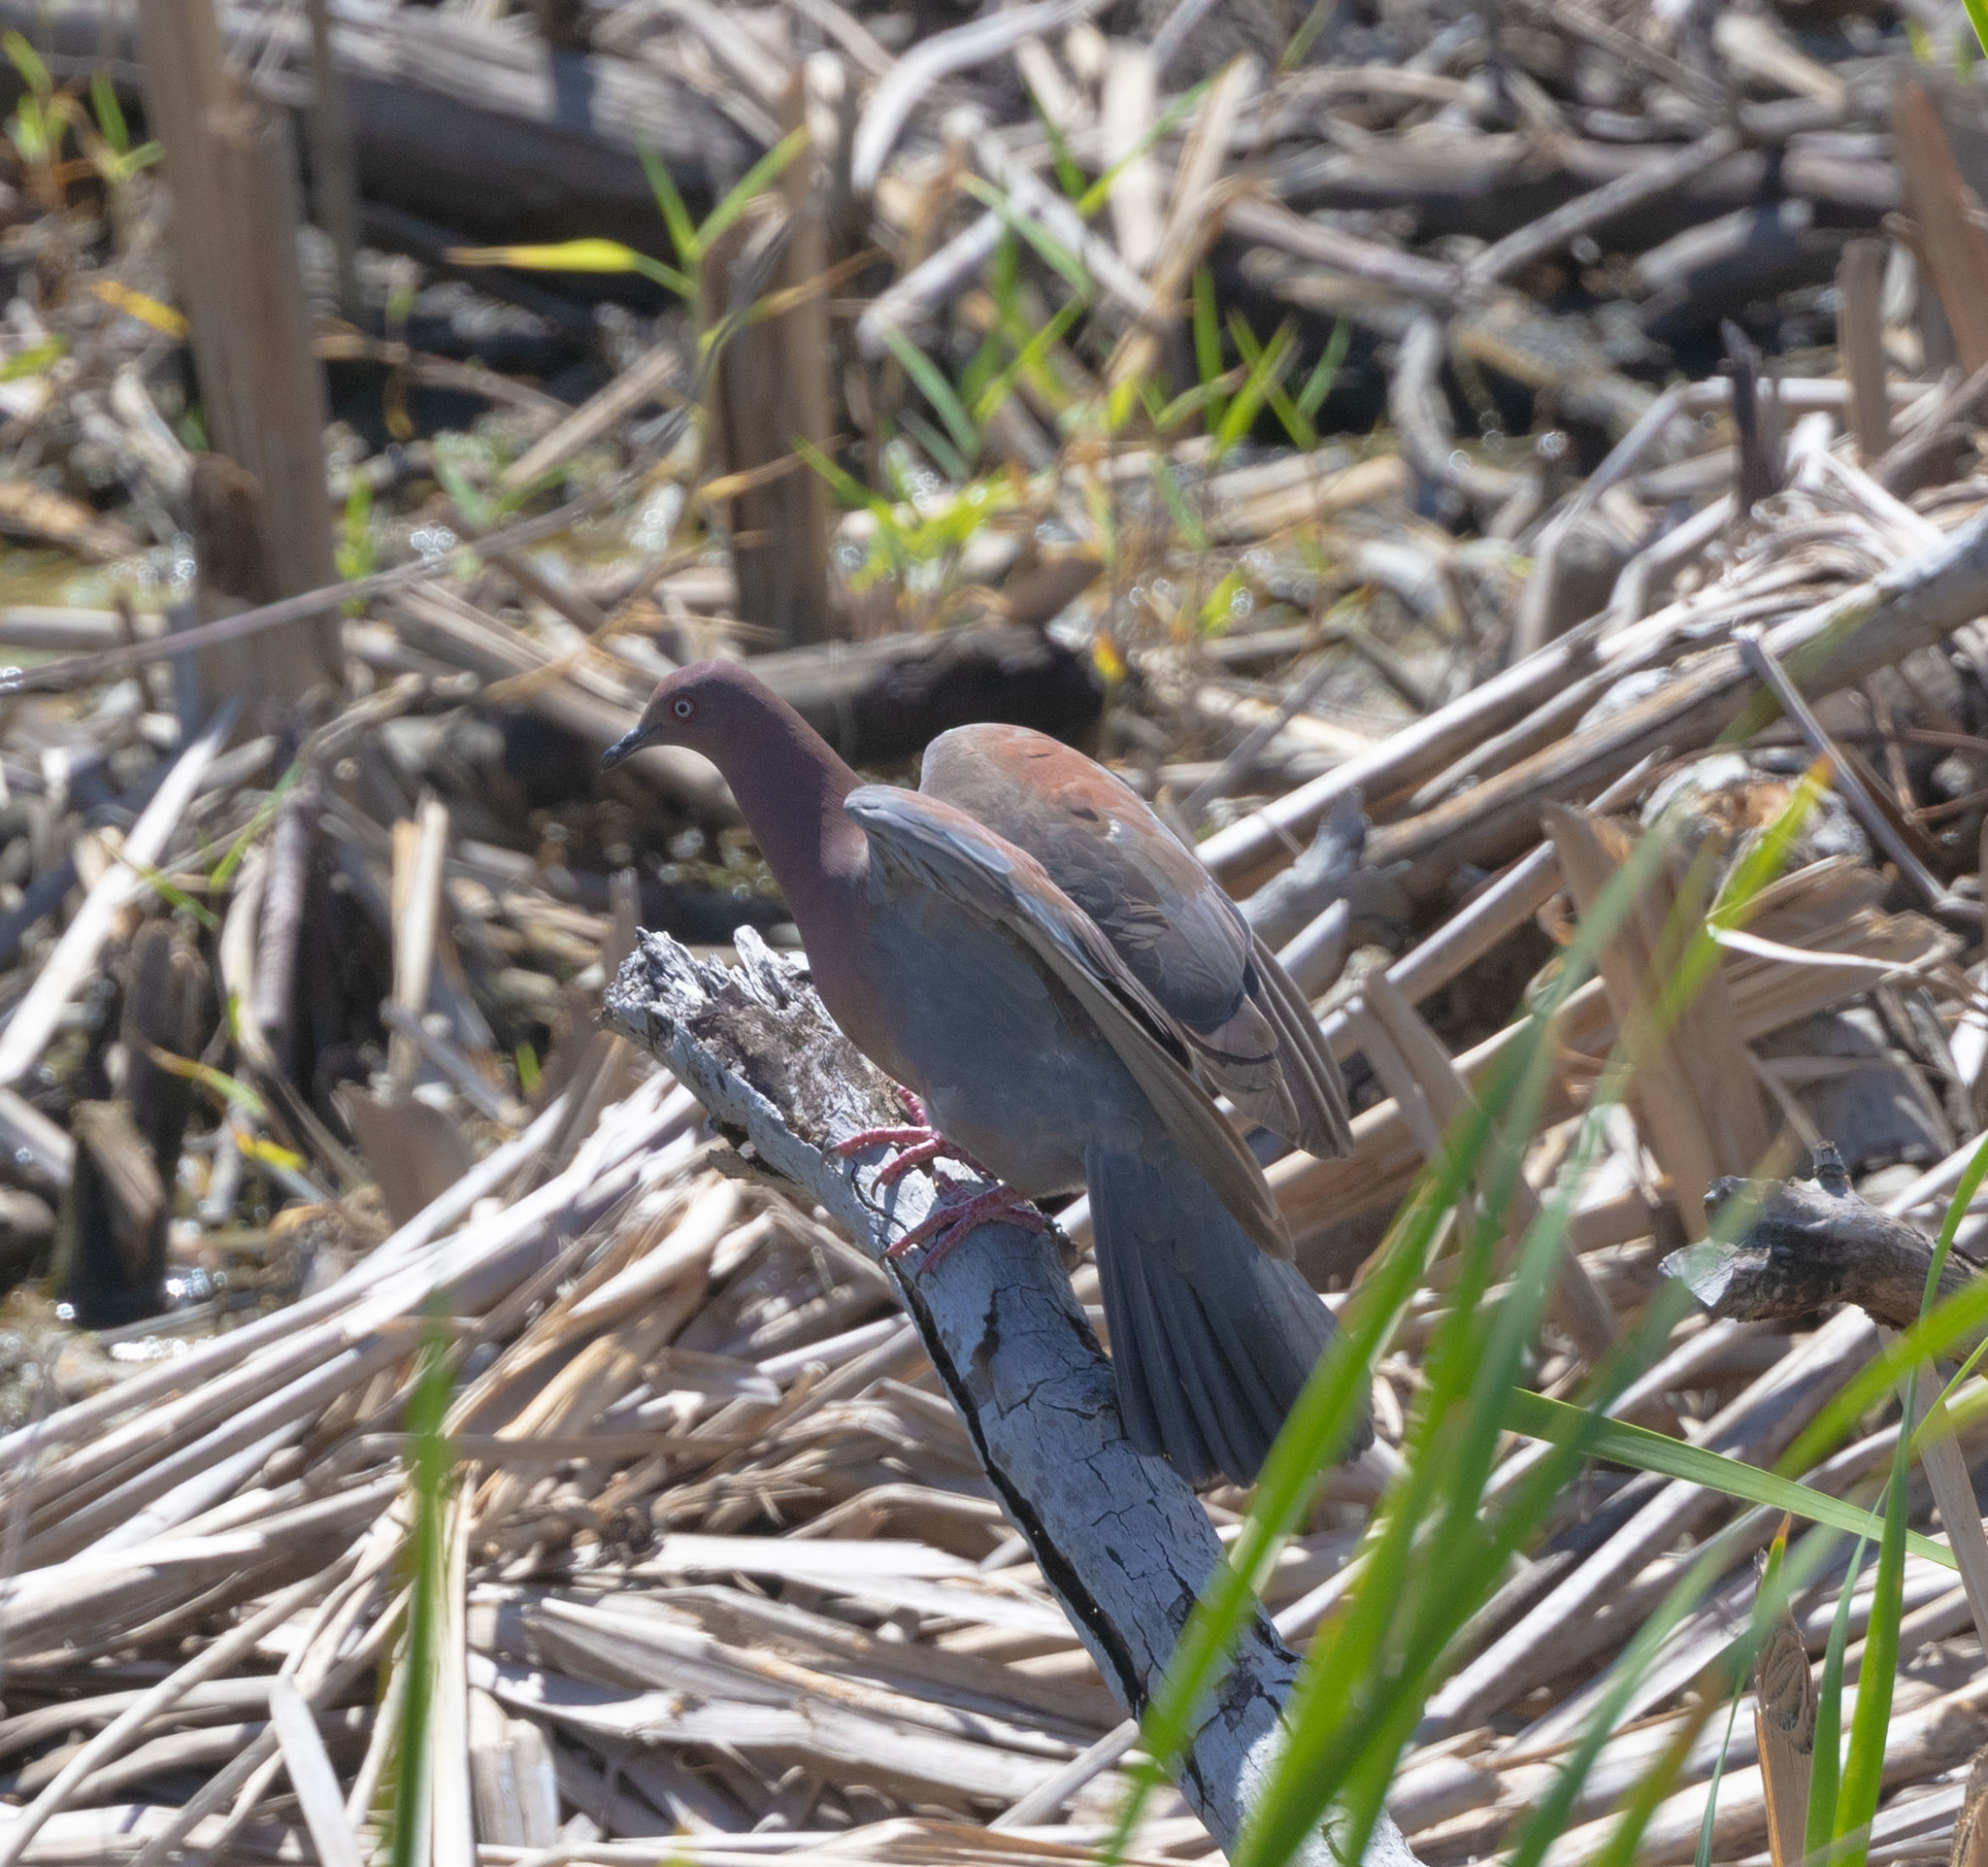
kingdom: Animalia
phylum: Chordata
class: Aves
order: Columbiformes
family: Columbidae
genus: Patagioenas
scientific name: Patagioenas inornata
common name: Plain pigeon
